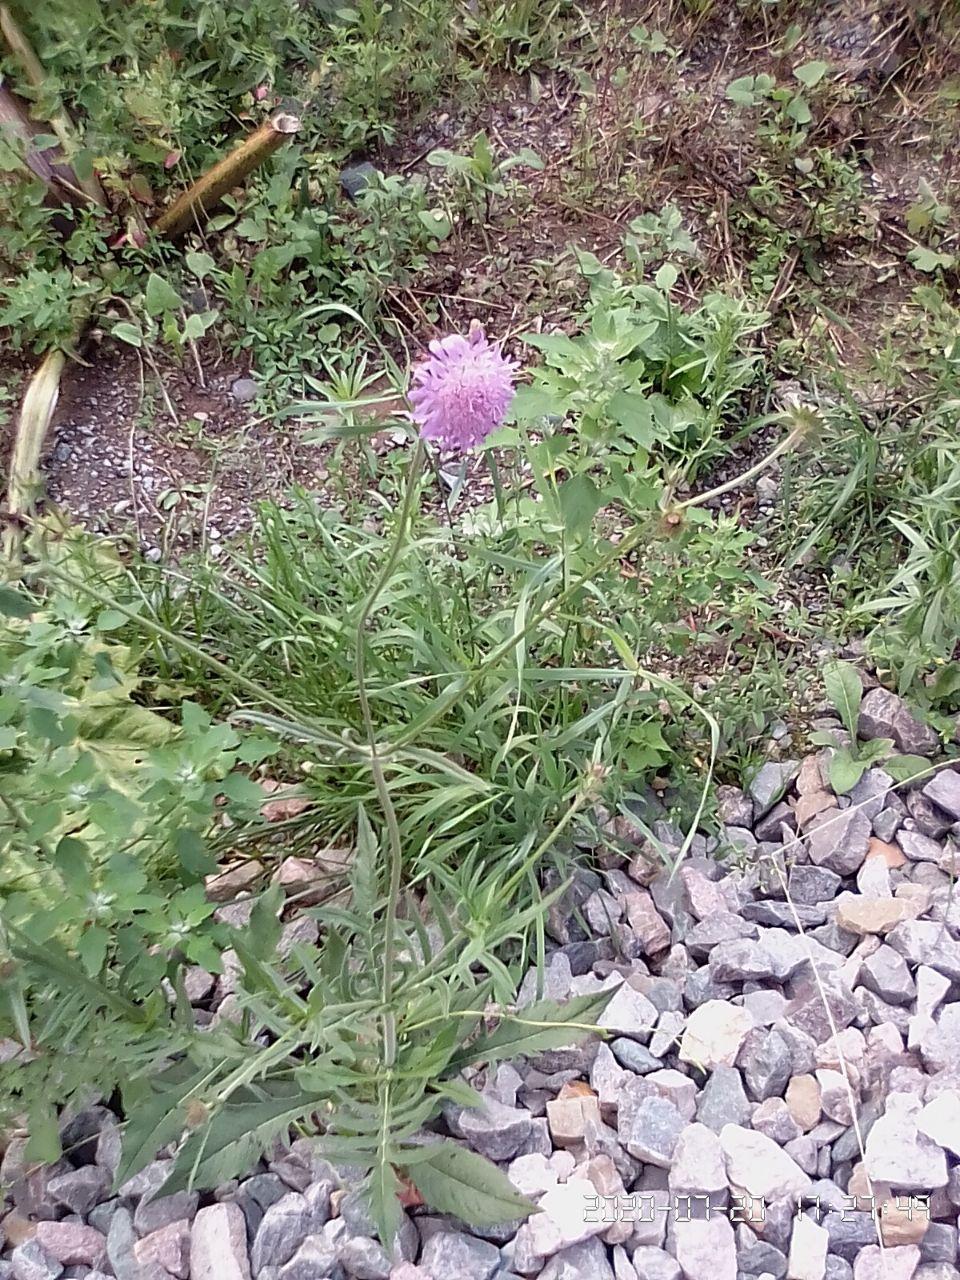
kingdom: Plantae
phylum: Tracheophyta
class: Magnoliopsida
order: Dipsacales
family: Caprifoliaceae
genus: Knautia
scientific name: Knautia arvensis
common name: Field scabiosa
